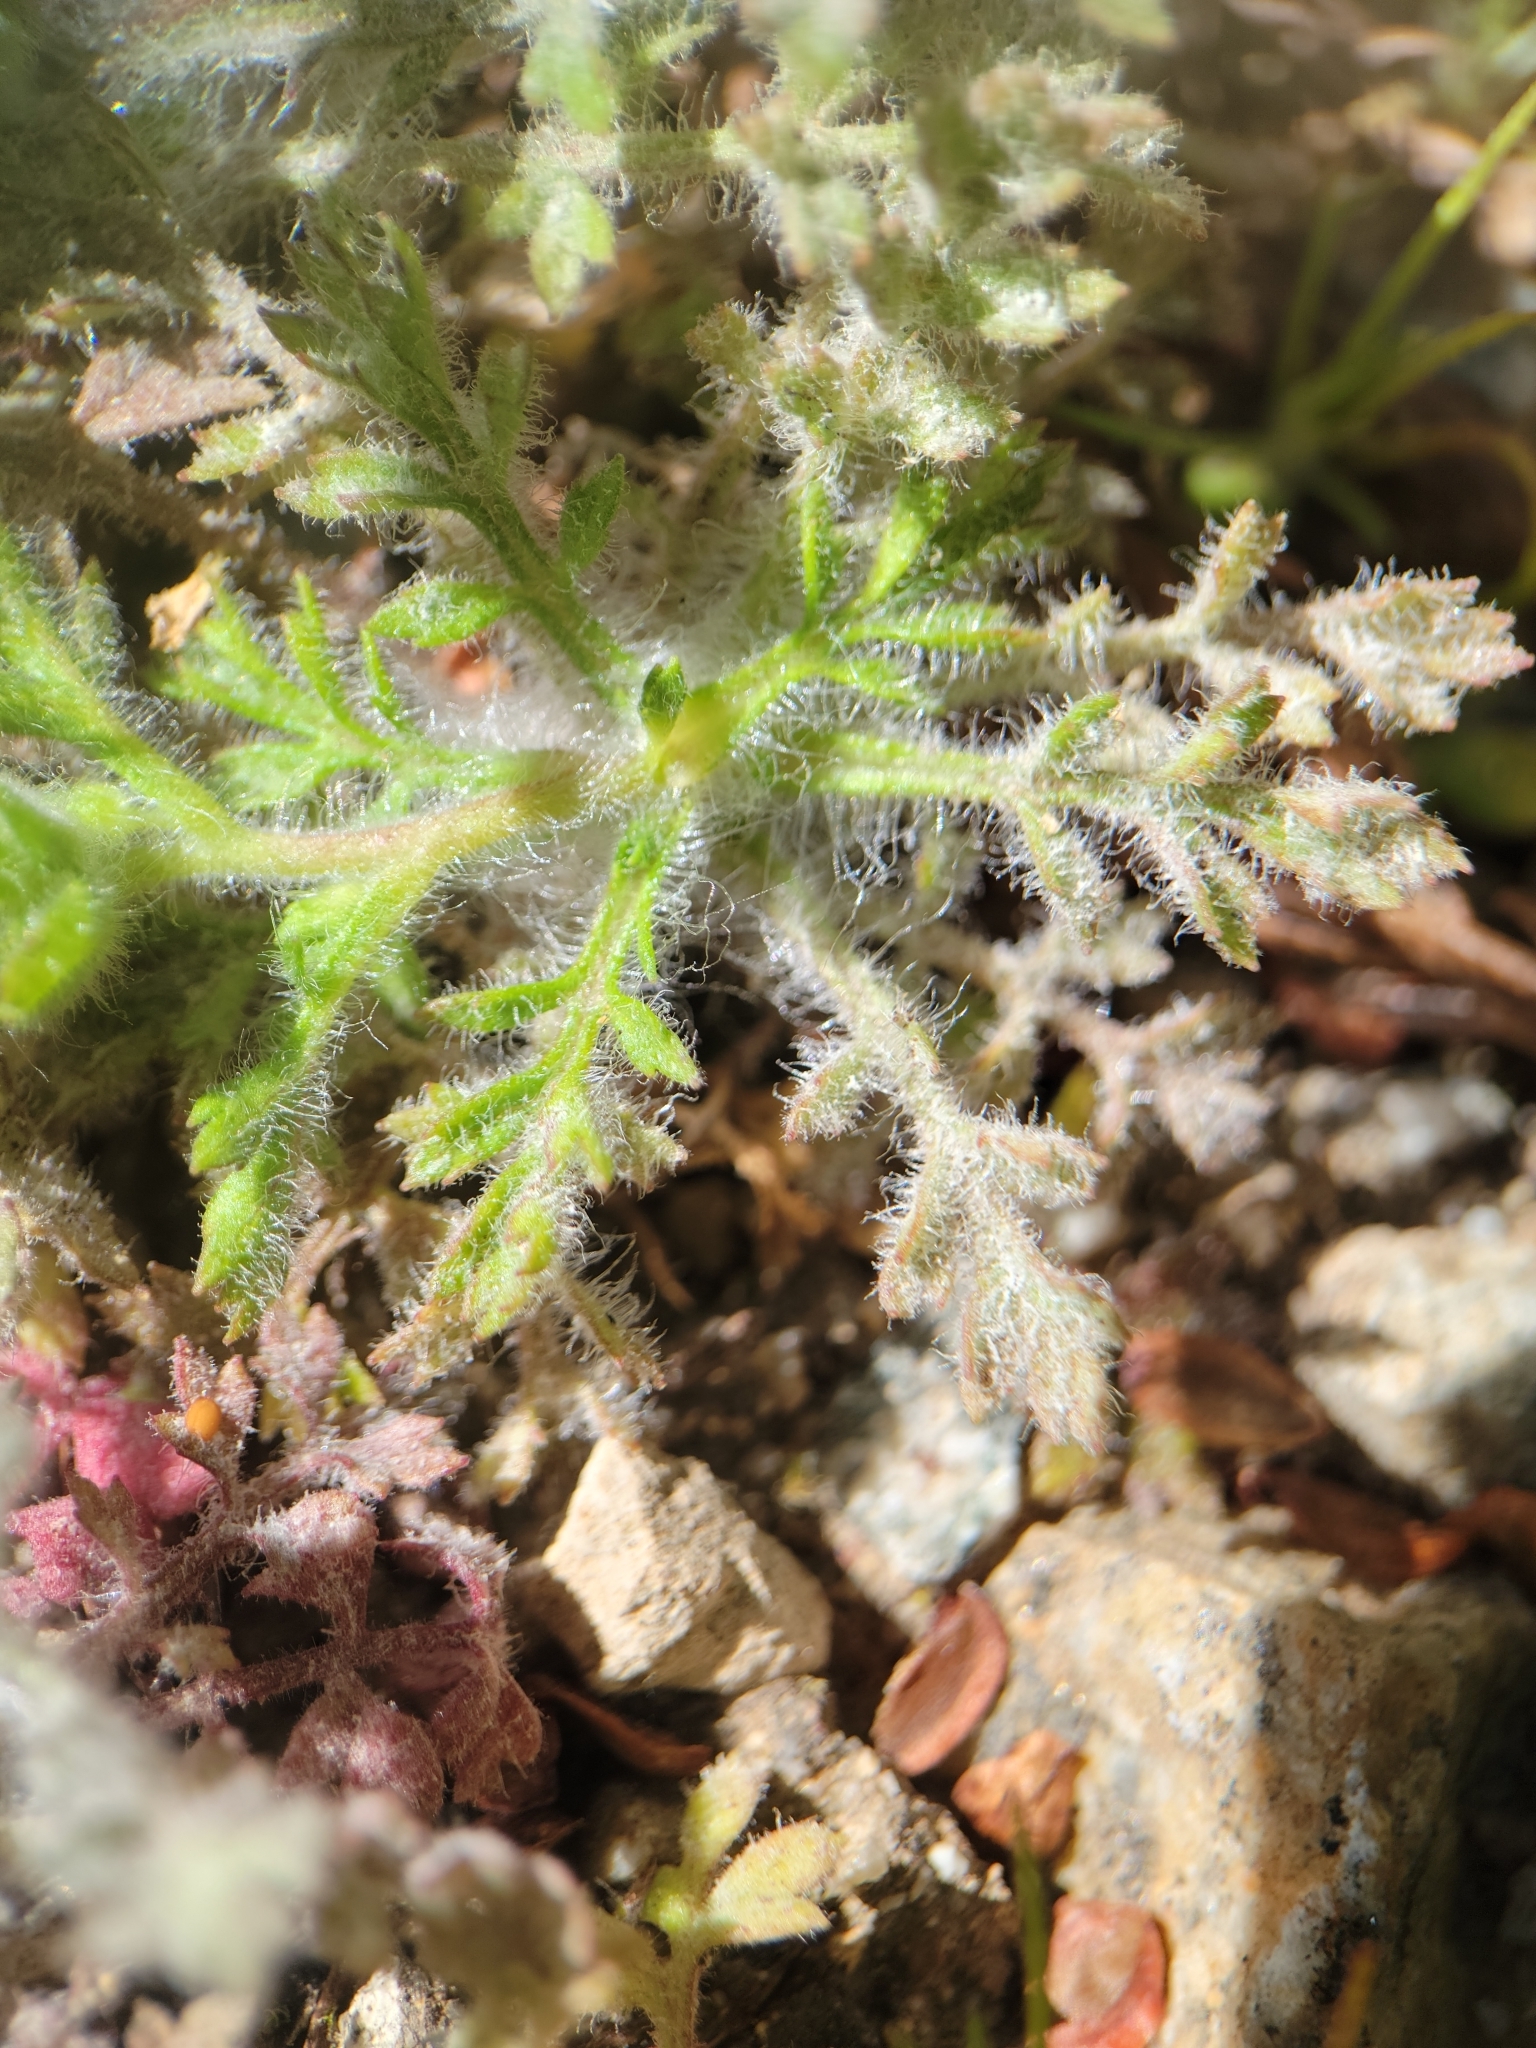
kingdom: Plantae
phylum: Tracheophyta
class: Magnoliopsida
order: Ericales
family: Polemoniaceae
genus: Collomia
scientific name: Collomia heterophylla
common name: Variable-leaved collomia
